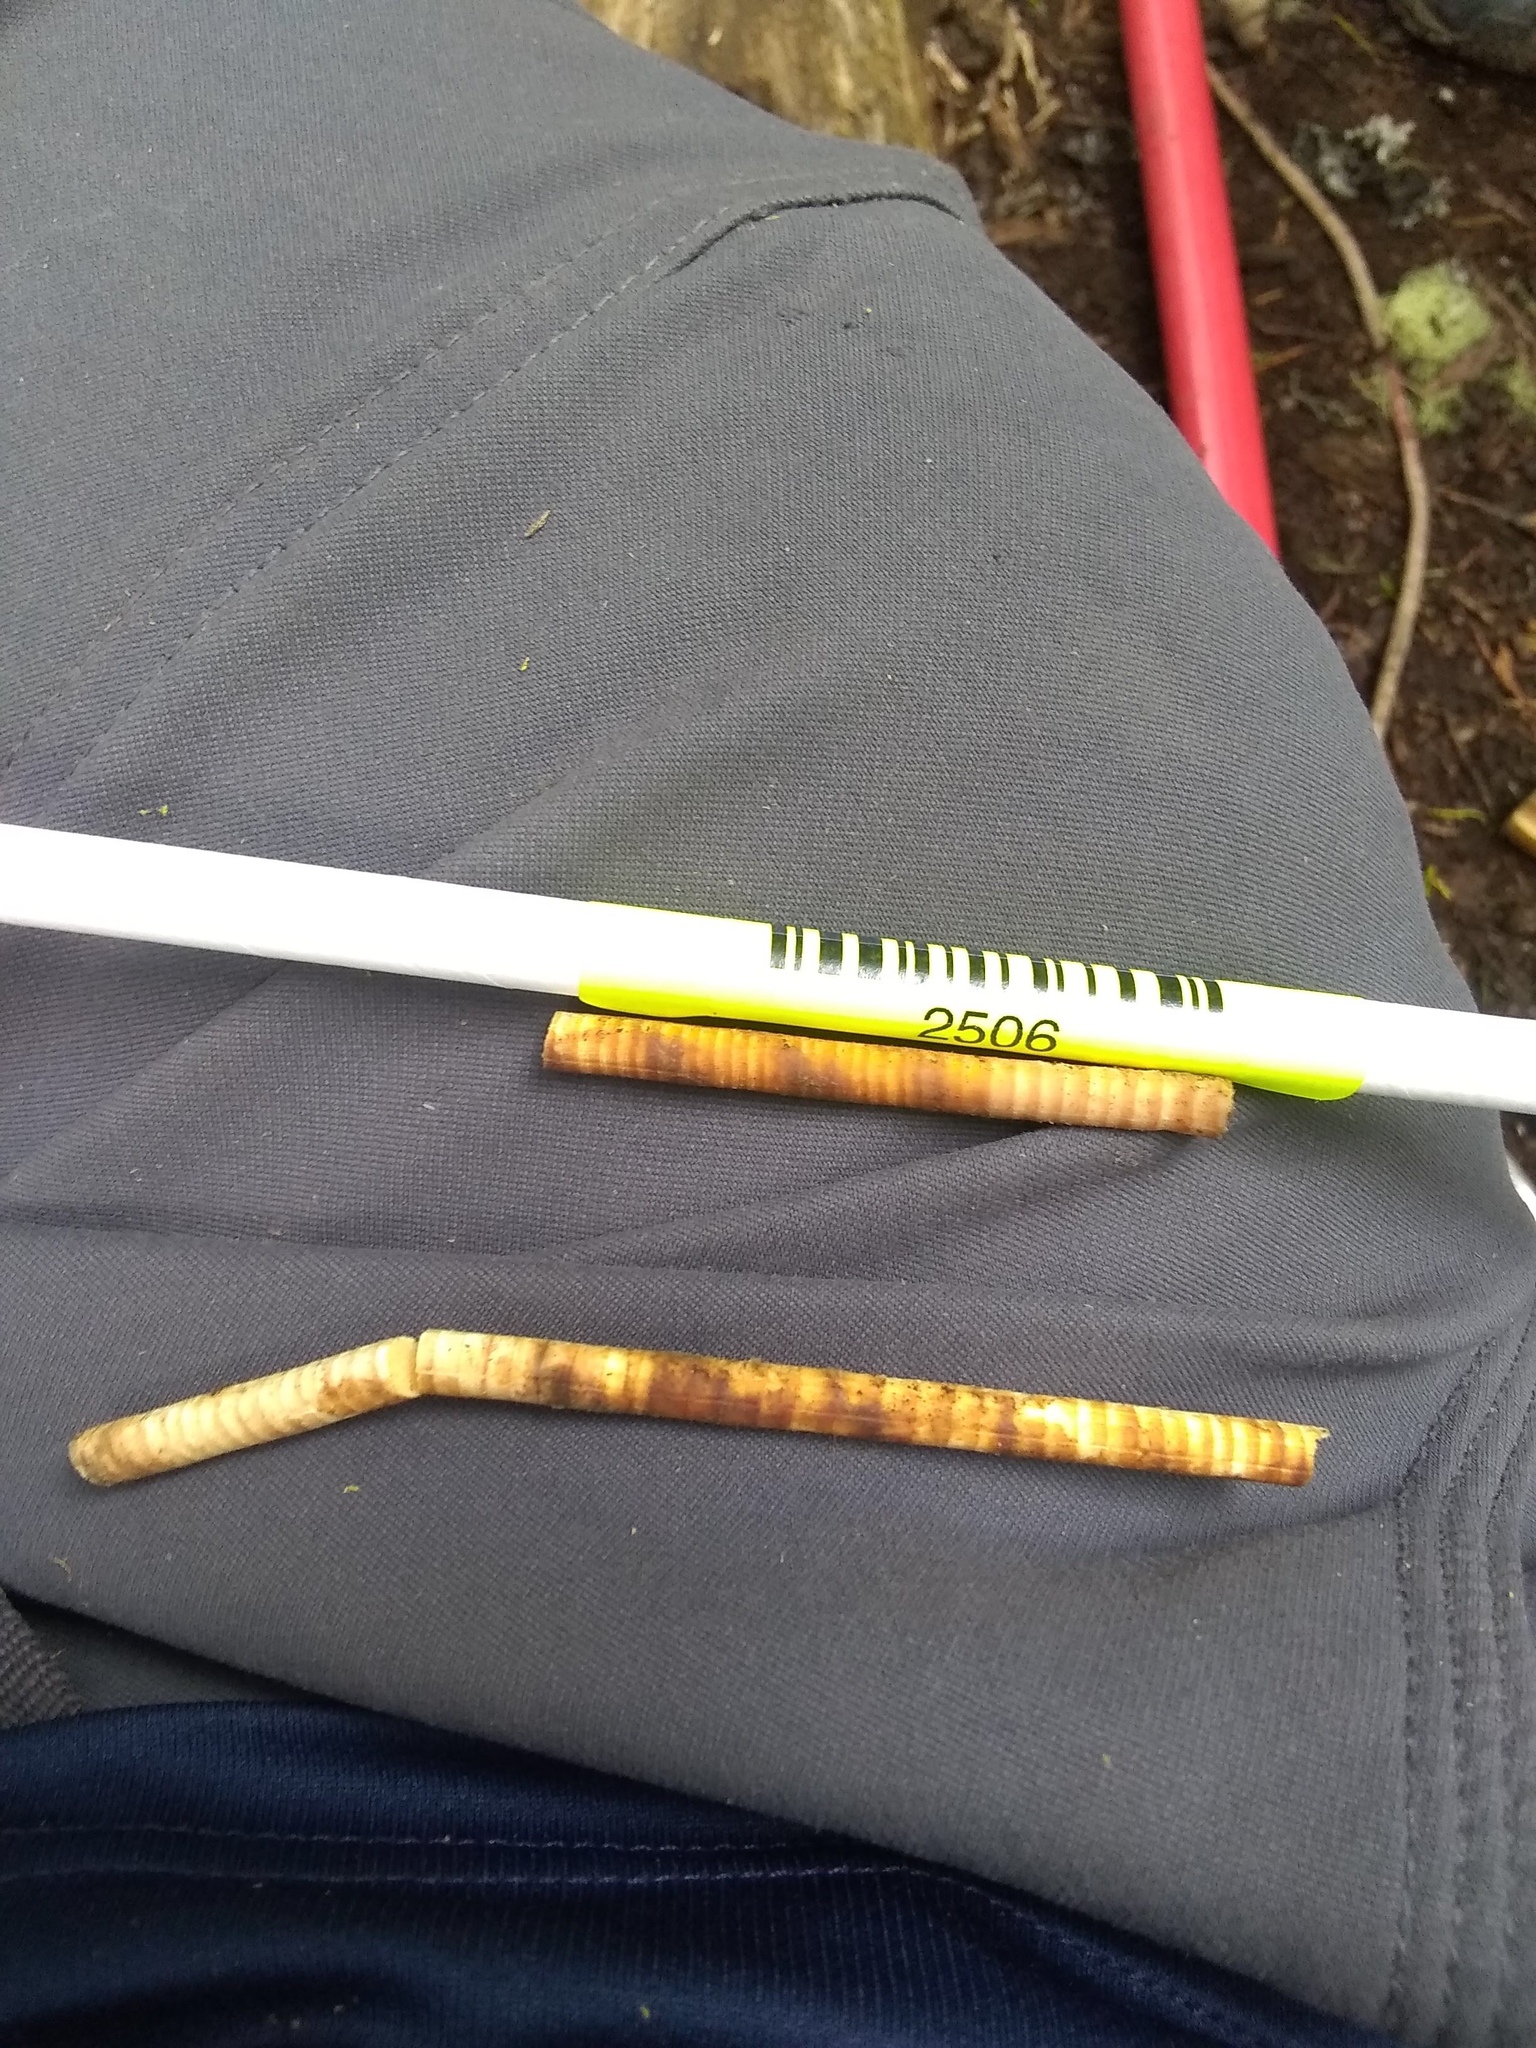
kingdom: Plantae
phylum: Tracheophyta
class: Pinopsida
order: Pinales
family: Cupressaceae
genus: Xanthocyparis
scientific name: Xanthocyparis nootkatensis
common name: Nootka cypress
